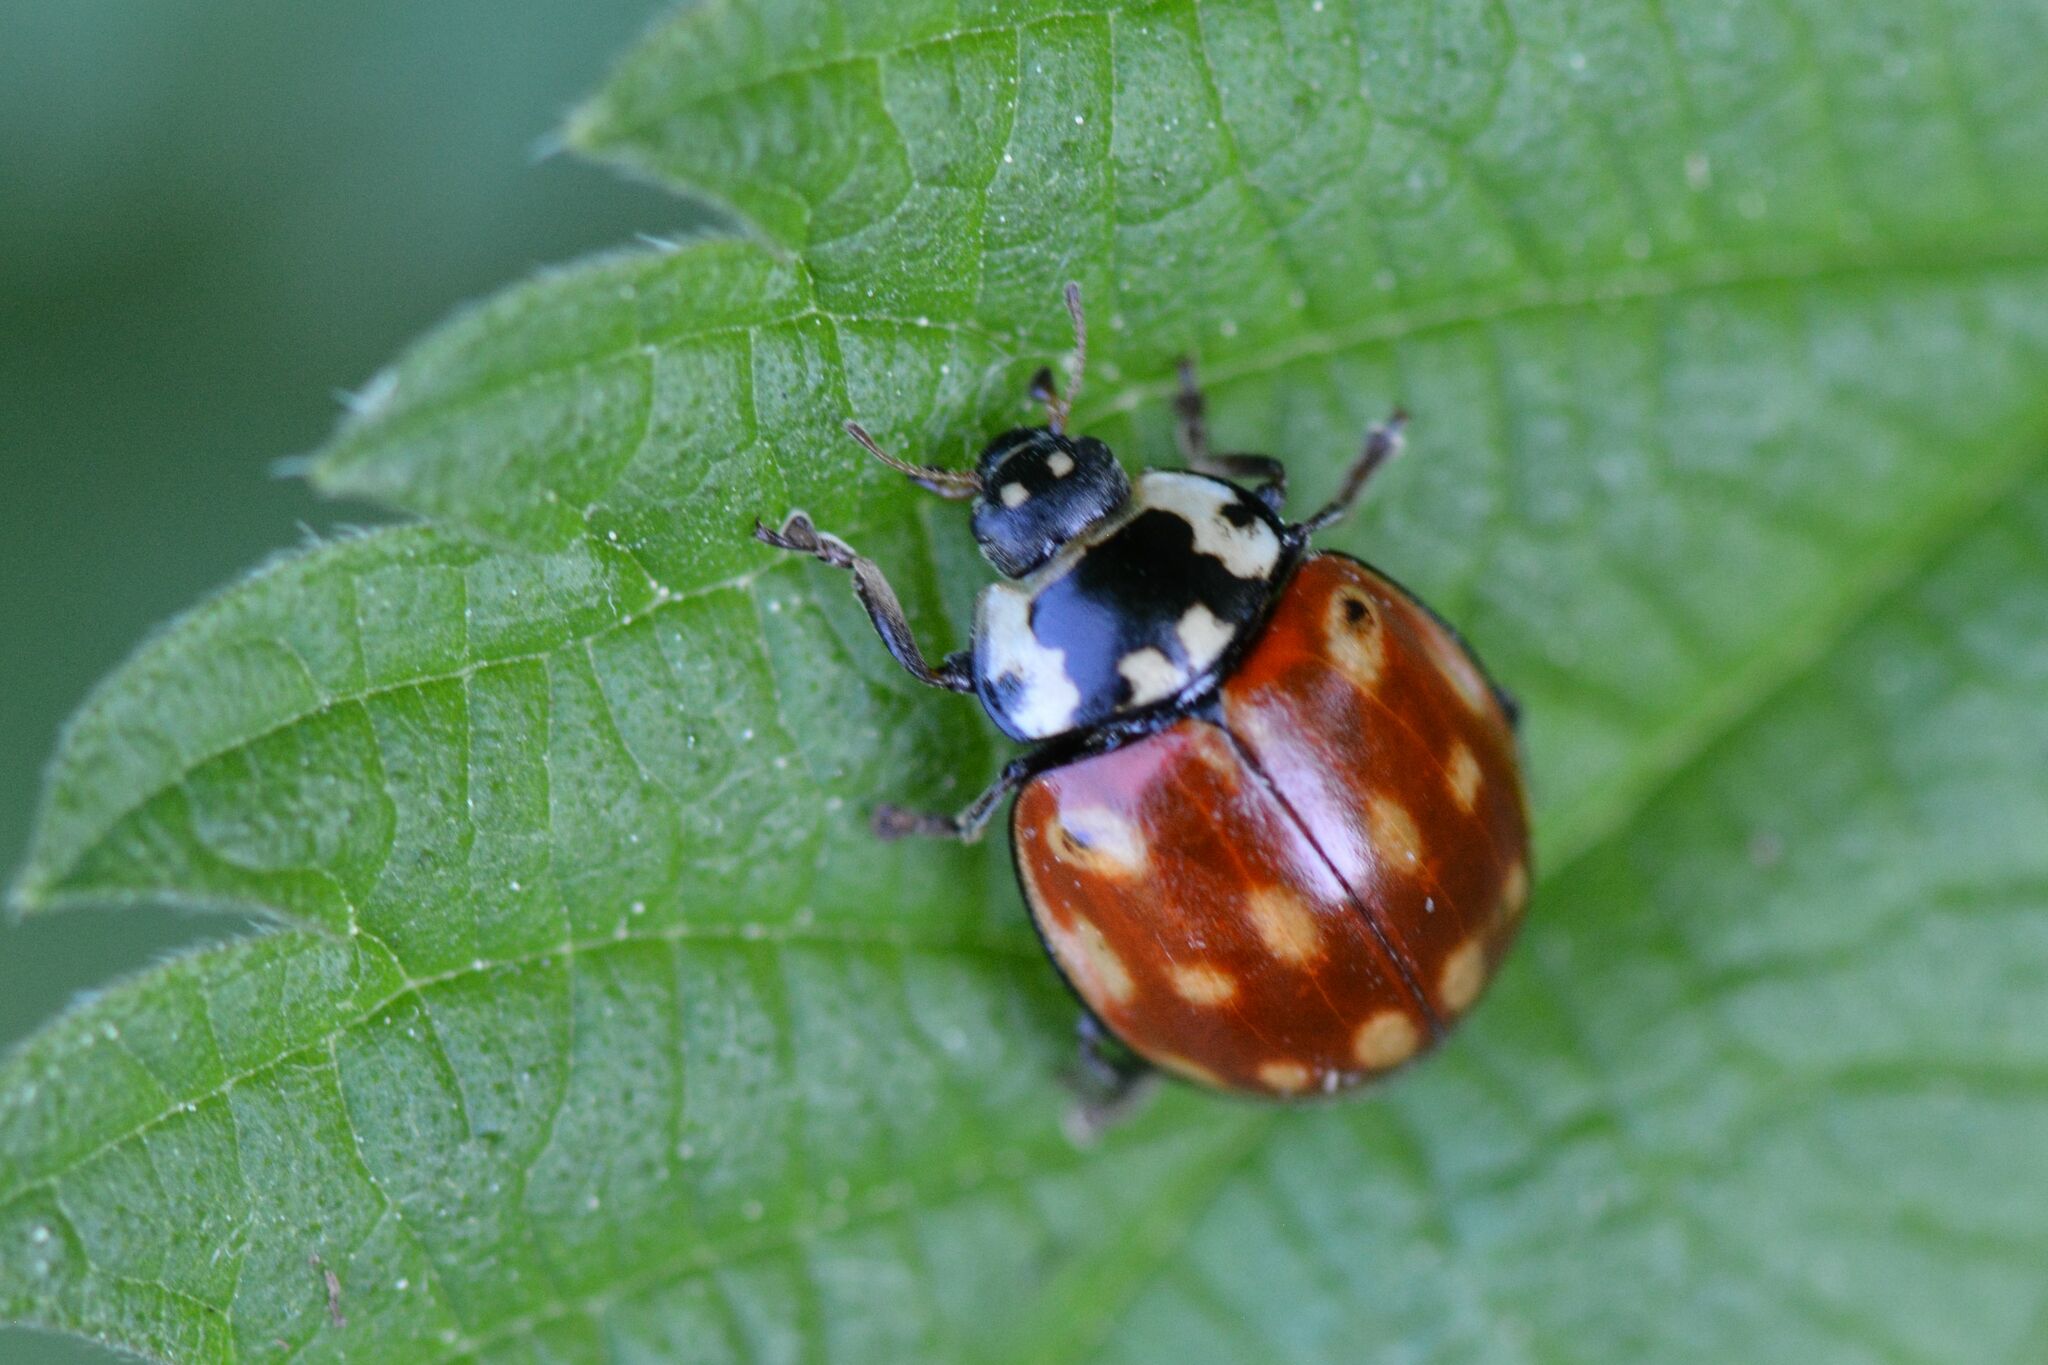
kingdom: Animalia
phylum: Arthropoda
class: Insecta
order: Coleoptera
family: Coccinellidae
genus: Anatis
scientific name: Anatis ocellata
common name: Eyed ladybird
